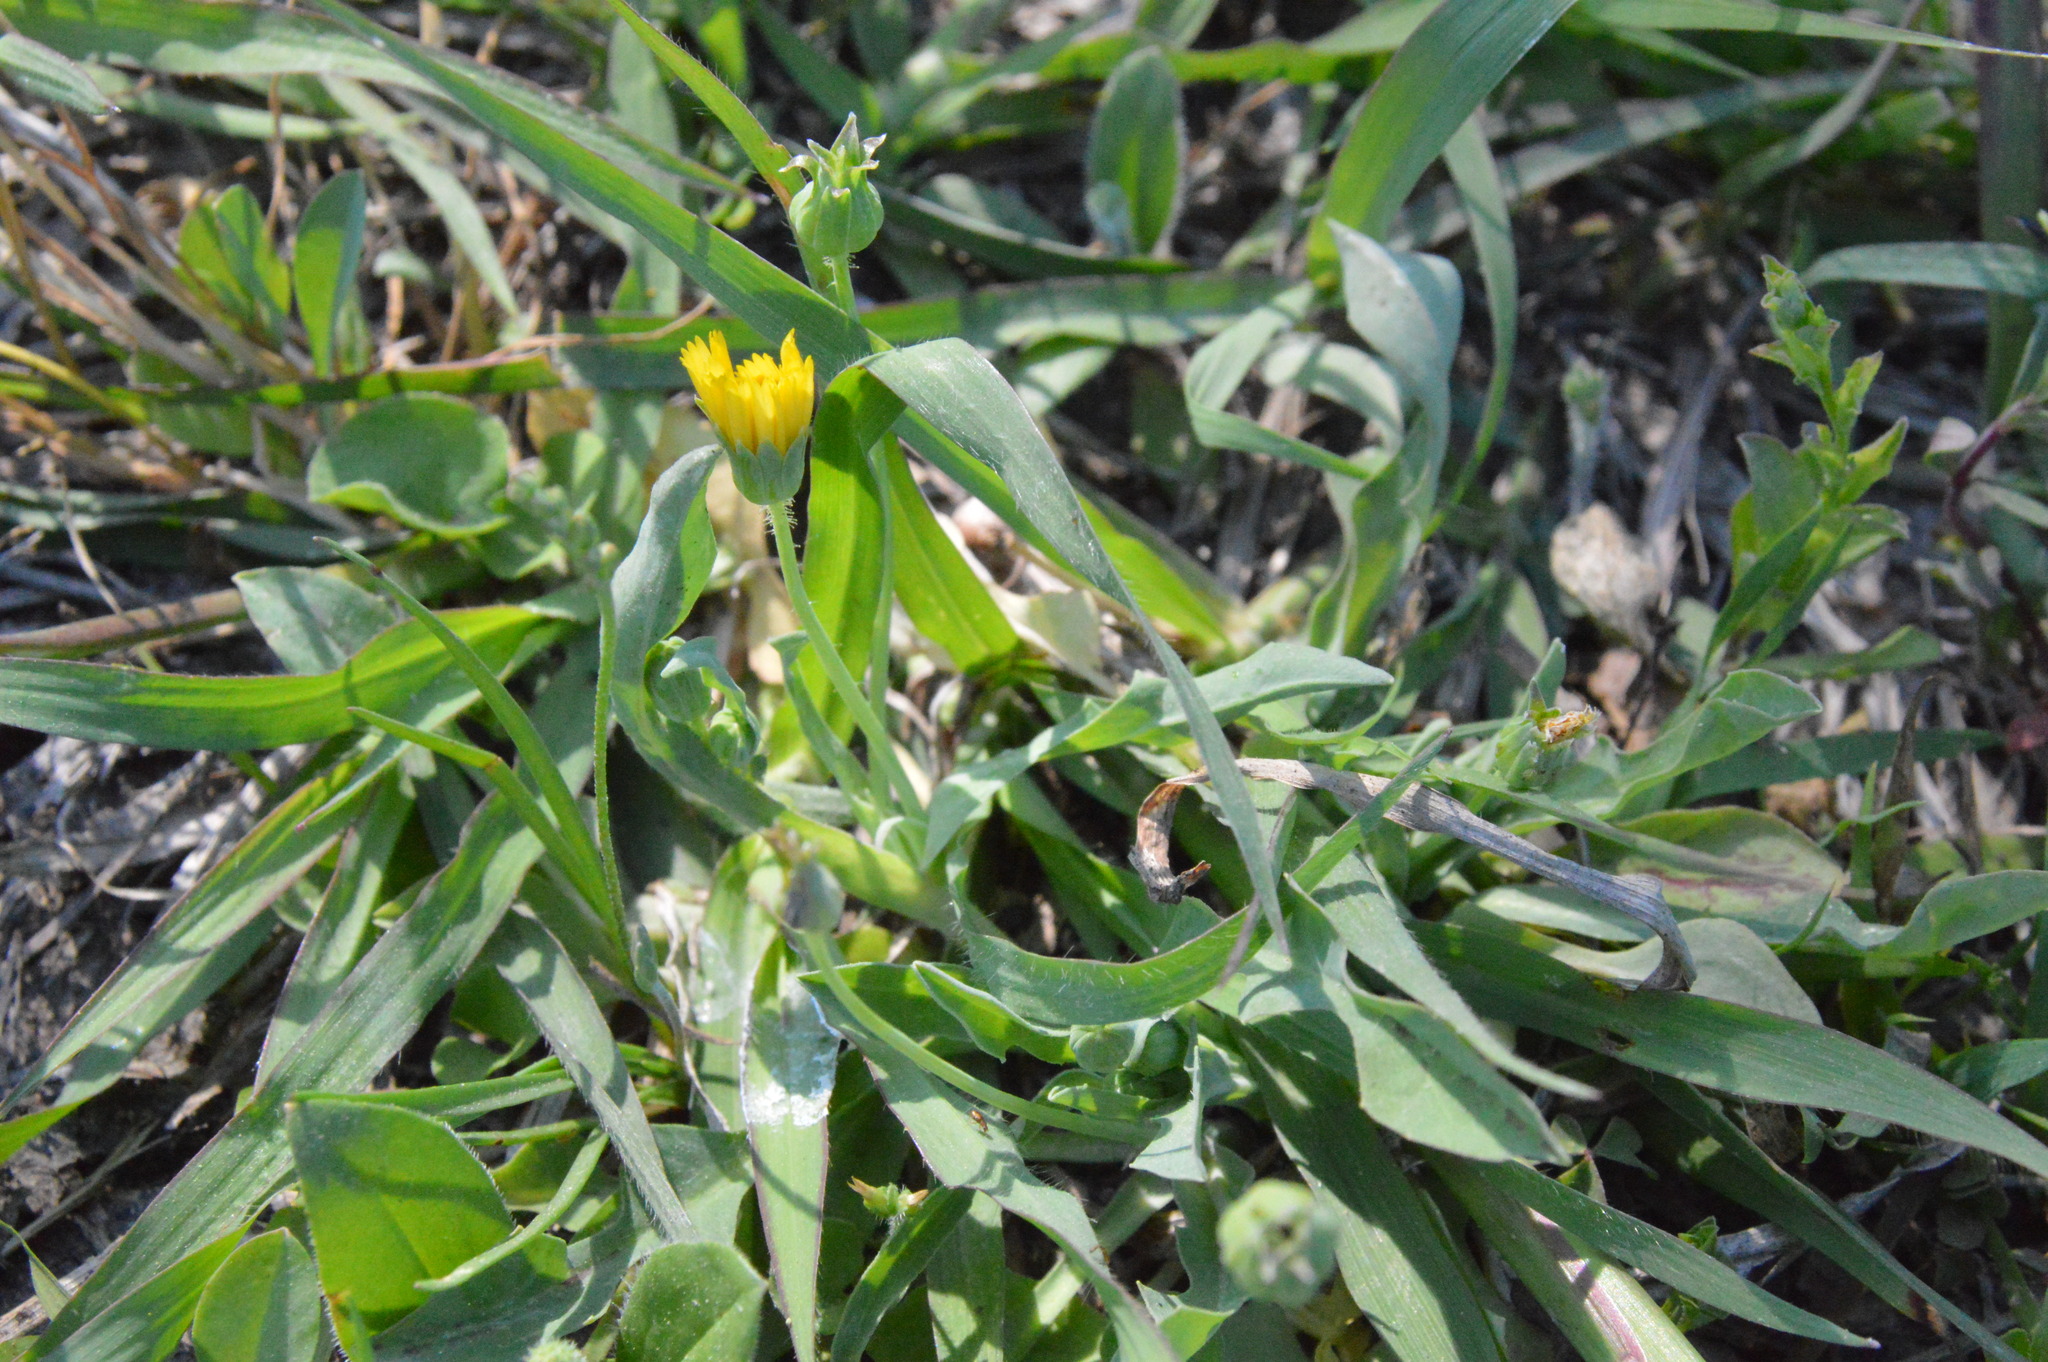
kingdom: Plantae
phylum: Tracheophyta
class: Magnoliopsida
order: Asterales
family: Asteraceae
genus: Krigia
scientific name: Krigia cespitosa
